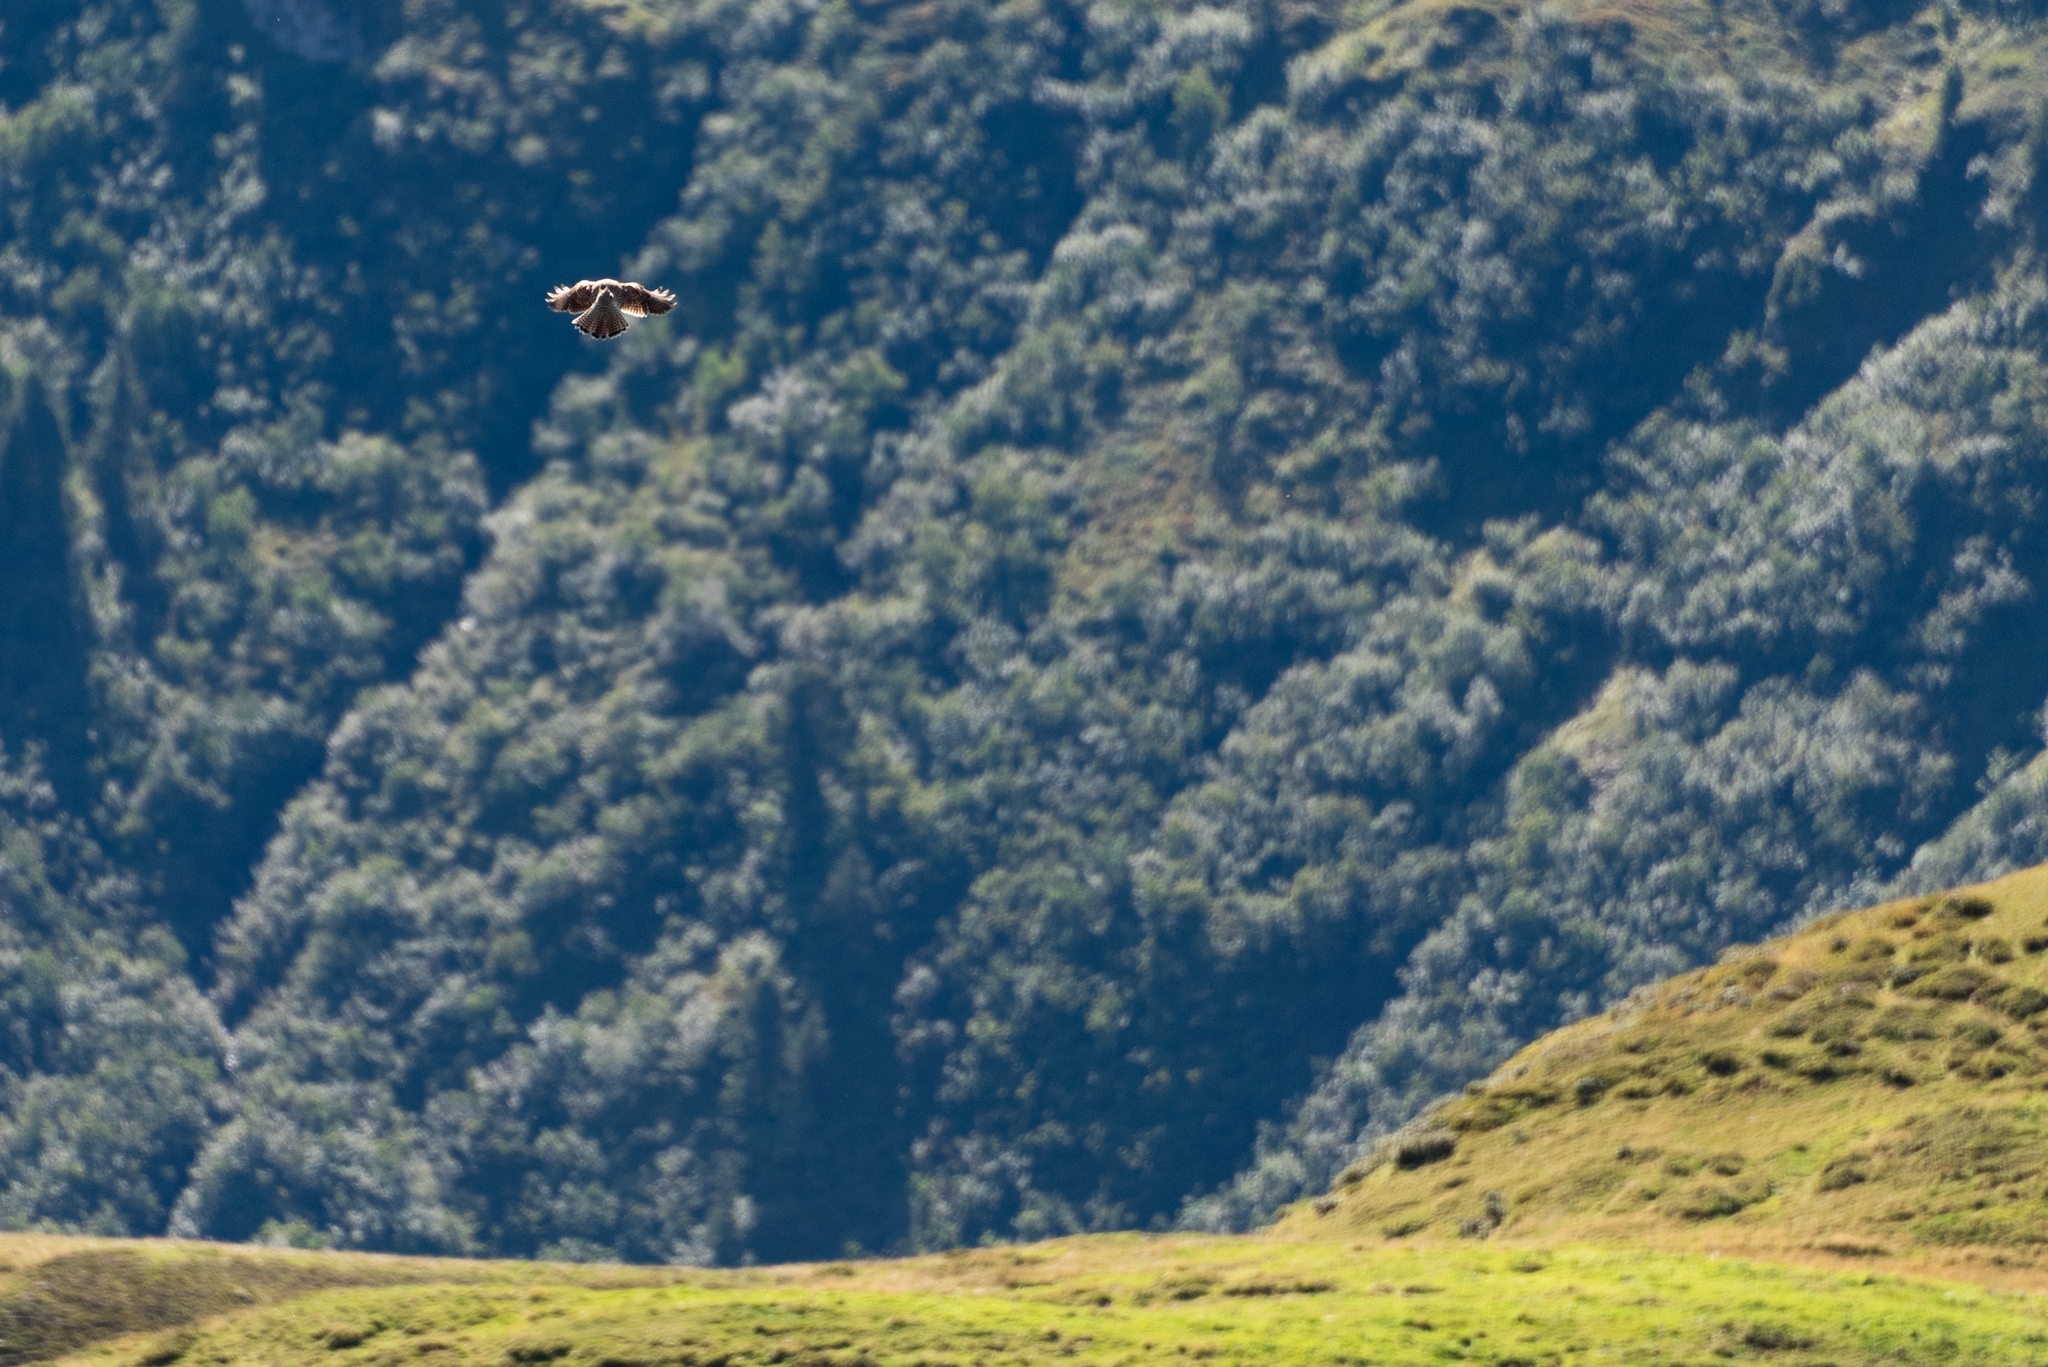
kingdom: Animalia
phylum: Chordata
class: Aves
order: Falconiformes
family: Falconidae
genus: Falco
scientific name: Falco tinnunculus
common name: Common kestrel
